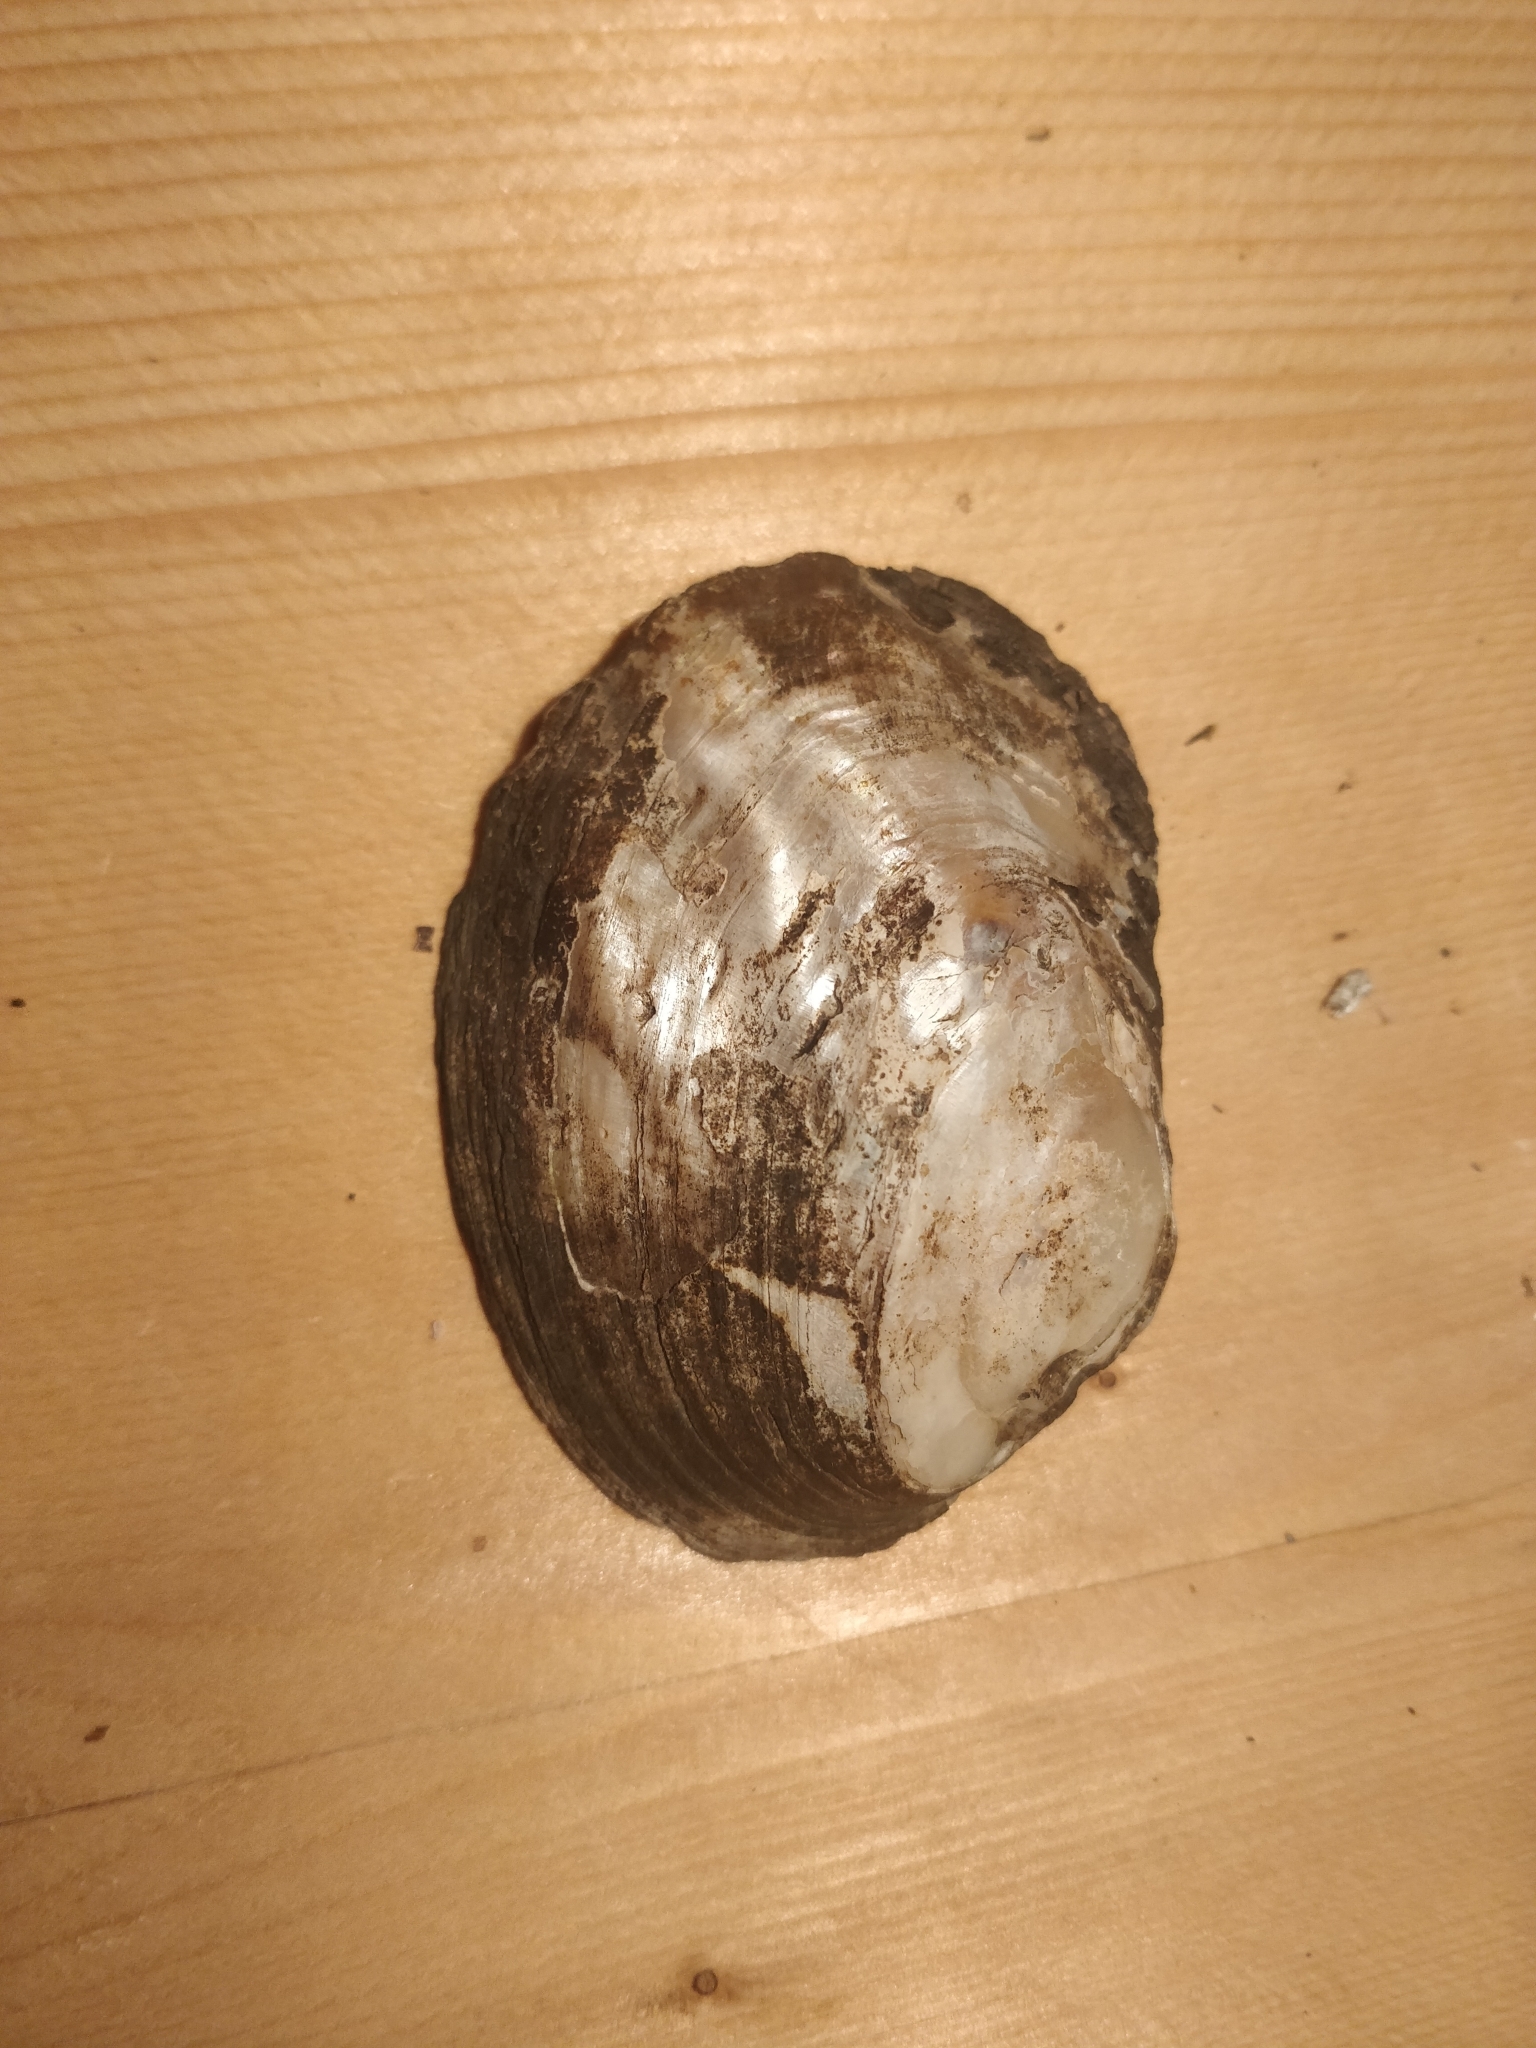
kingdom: Animalia
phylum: Mollusca
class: Bivalvia
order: Unionida
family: Unionidae
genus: Amblema
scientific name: Amblema plicata
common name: Threeridge
